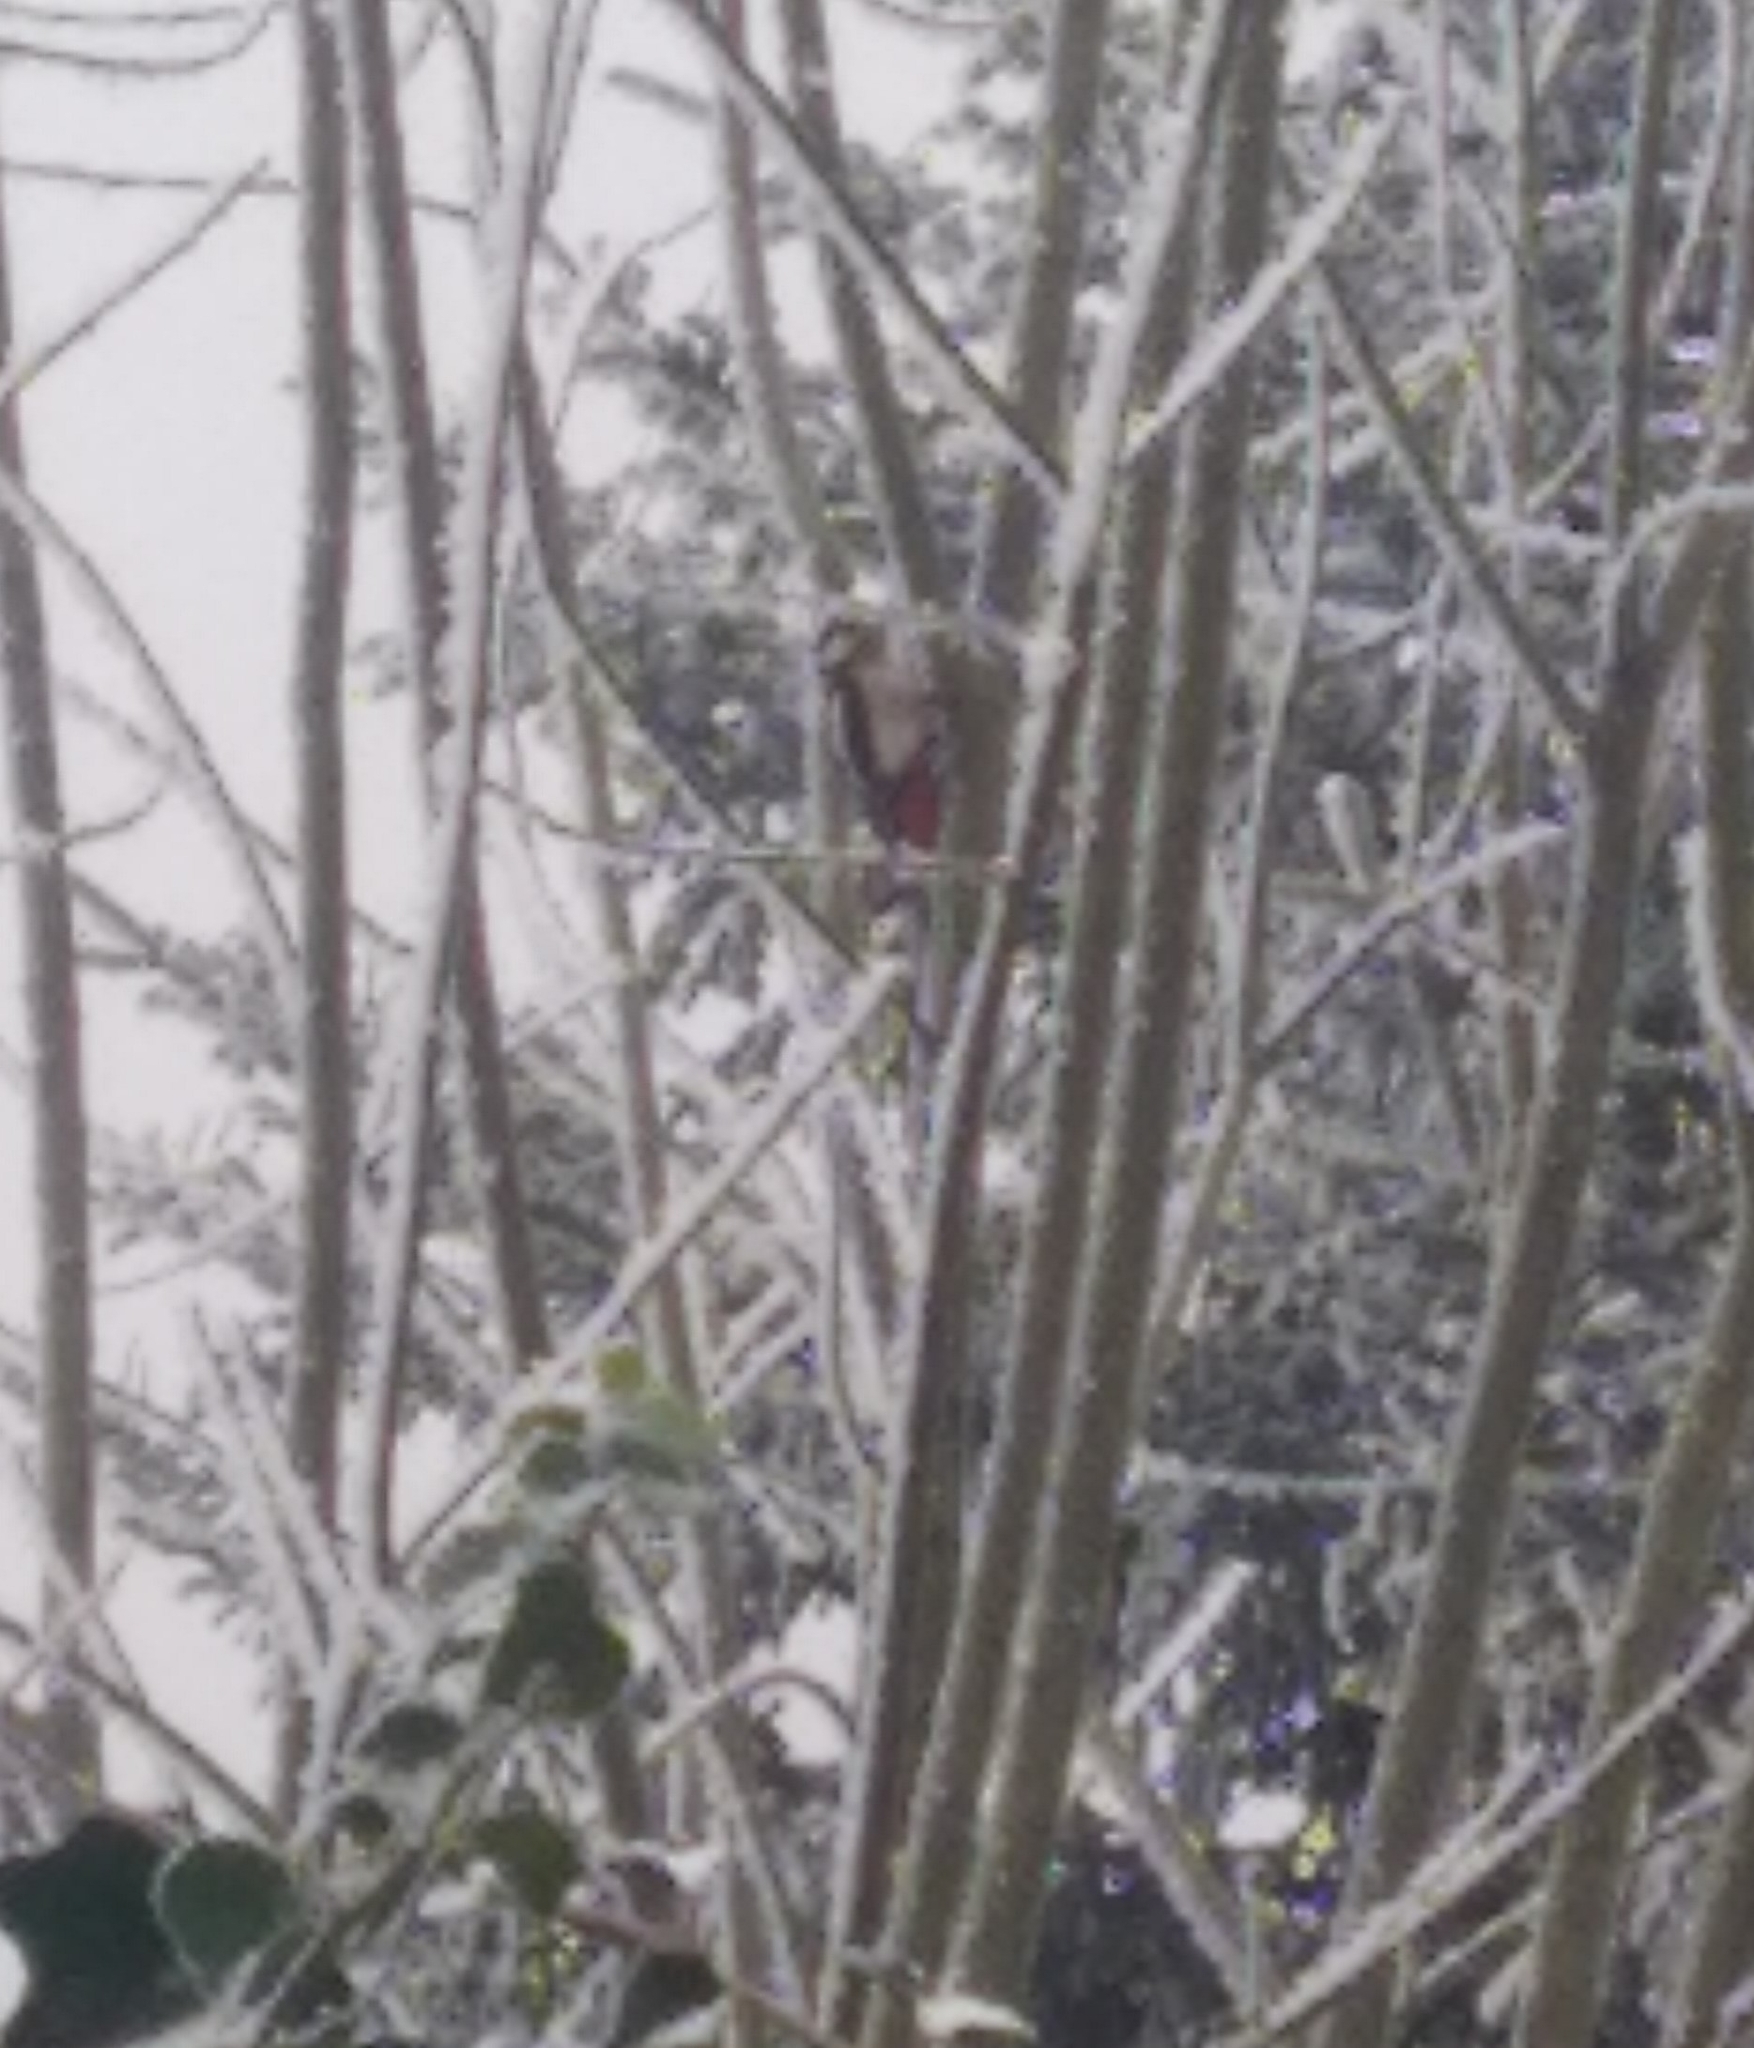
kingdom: Animalia
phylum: Chordata
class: Aves
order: Piciformes
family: Picidae
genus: Dendrocopos
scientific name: Dendrocopos major
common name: Great spotted woodpecker
